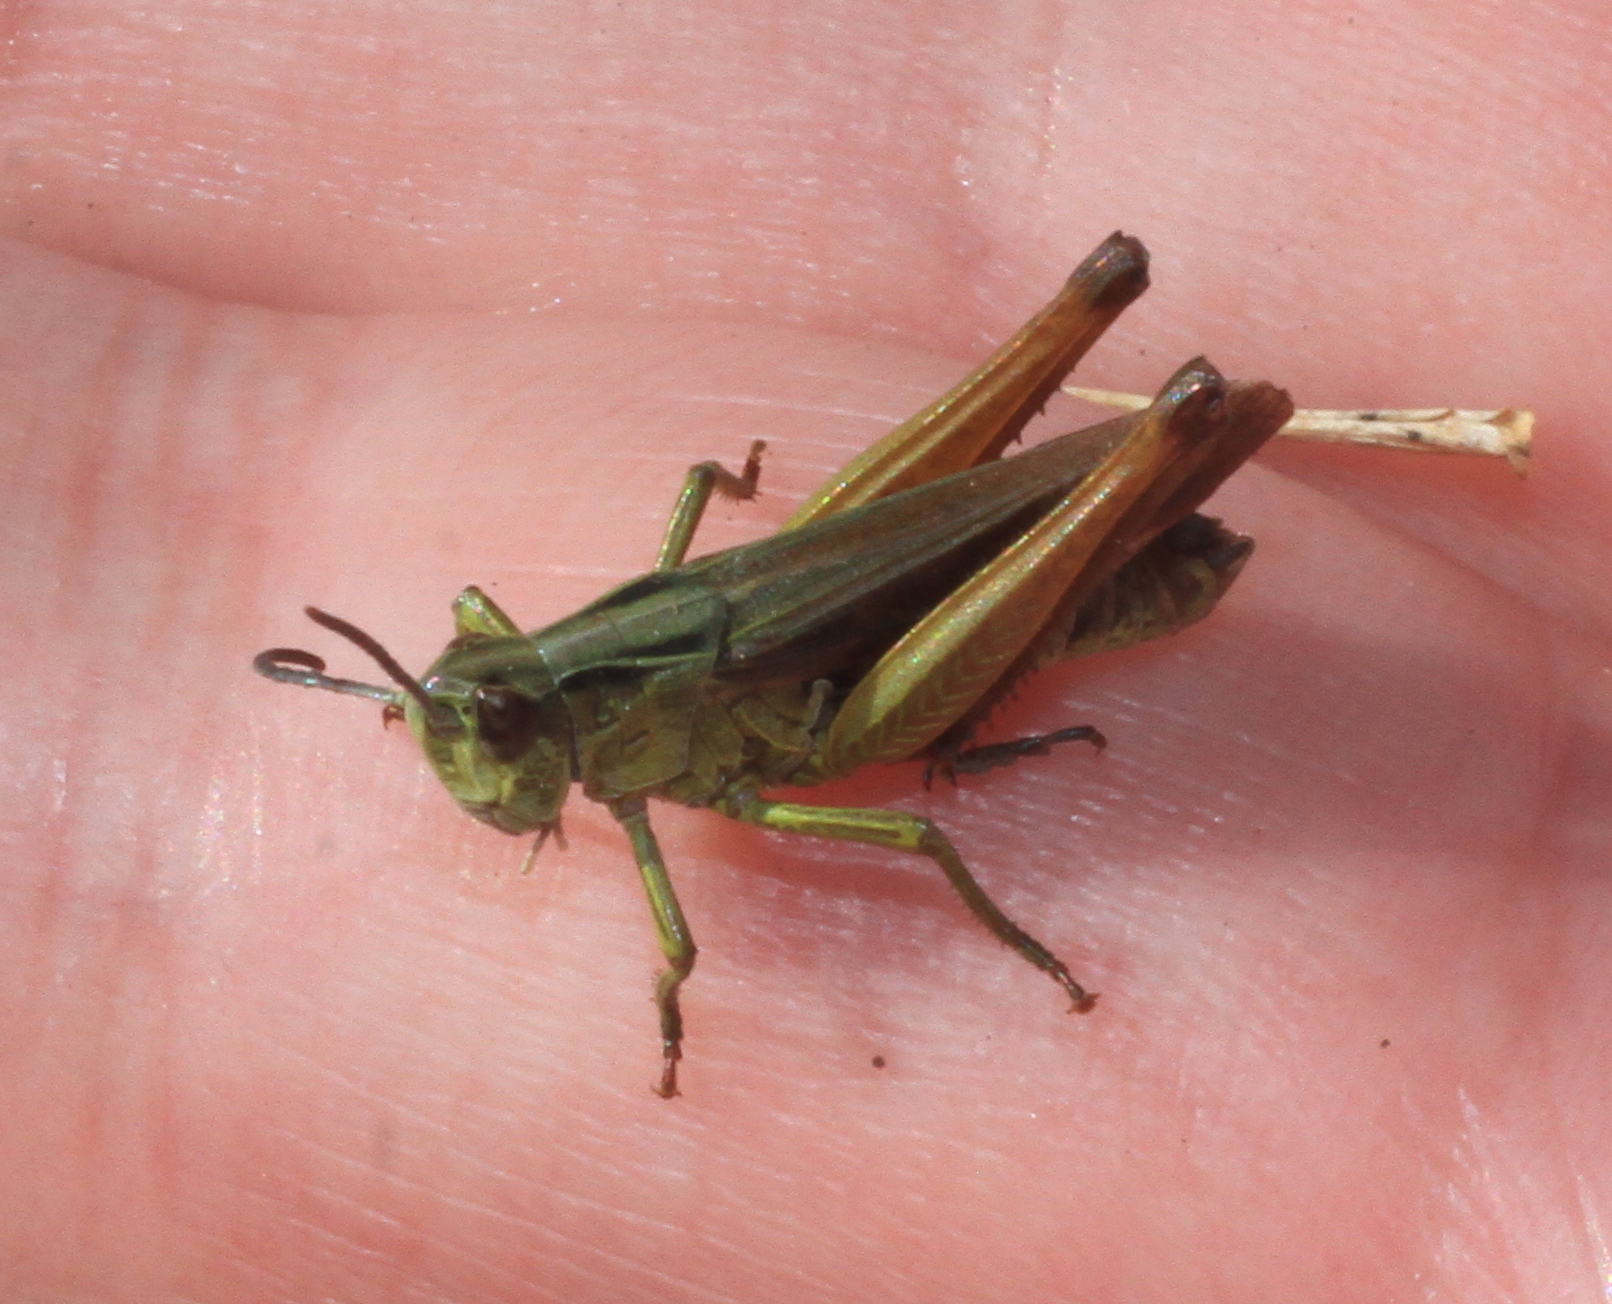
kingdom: Animalia
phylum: Arthropoda
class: Insecta
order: Orthoptera
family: Acrididae
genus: Omocestus
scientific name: Omocestus viridulus
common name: Common green grasshopper
